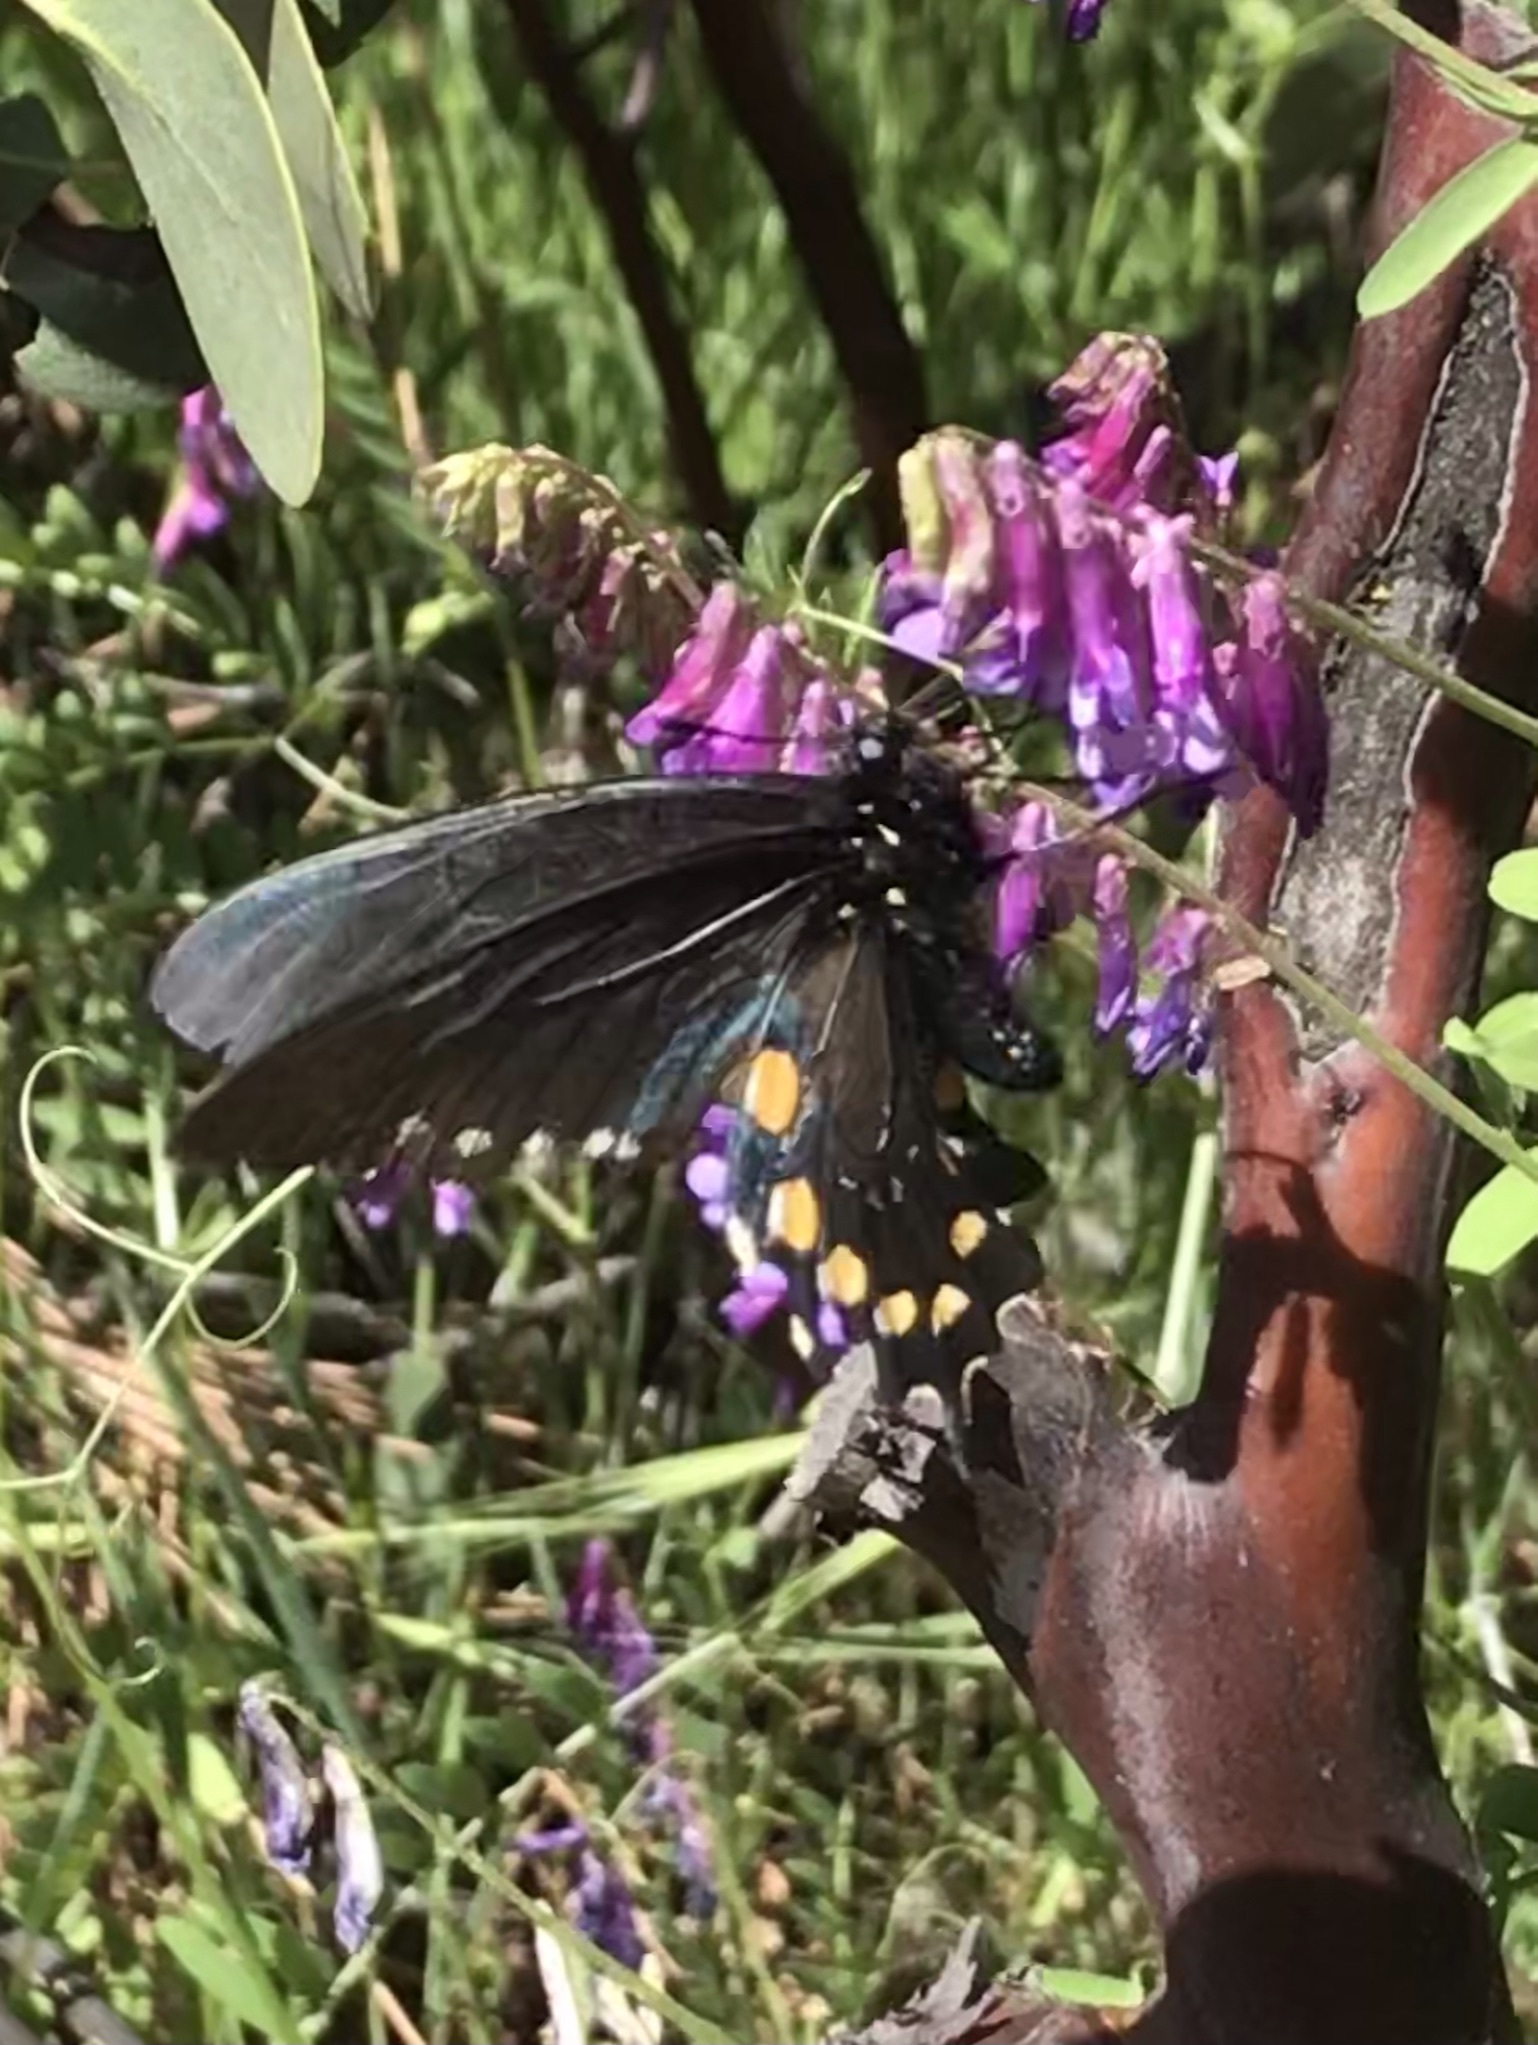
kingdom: Animalia
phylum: Arthropoda
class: Insecta
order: Lepidoptera
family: Papilionidae
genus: Battus
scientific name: Battus philenor
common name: Pipevine swallowtail
